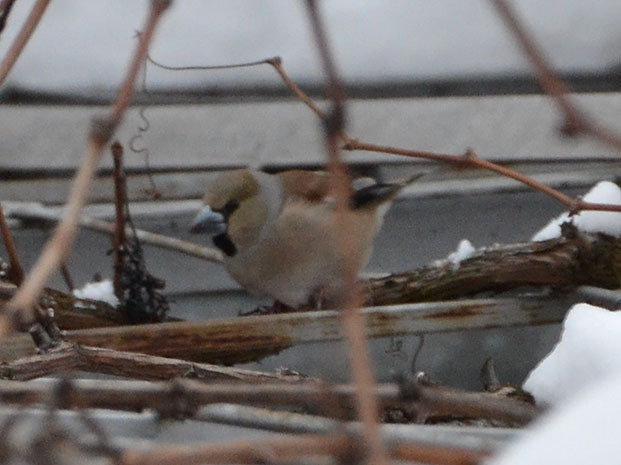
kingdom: Animalia
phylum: Chordata
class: Aves
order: Passeriformes
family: Fringillidae
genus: Coccothraustes
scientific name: Coccothraustes coccothraustes
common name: Hawfinch
